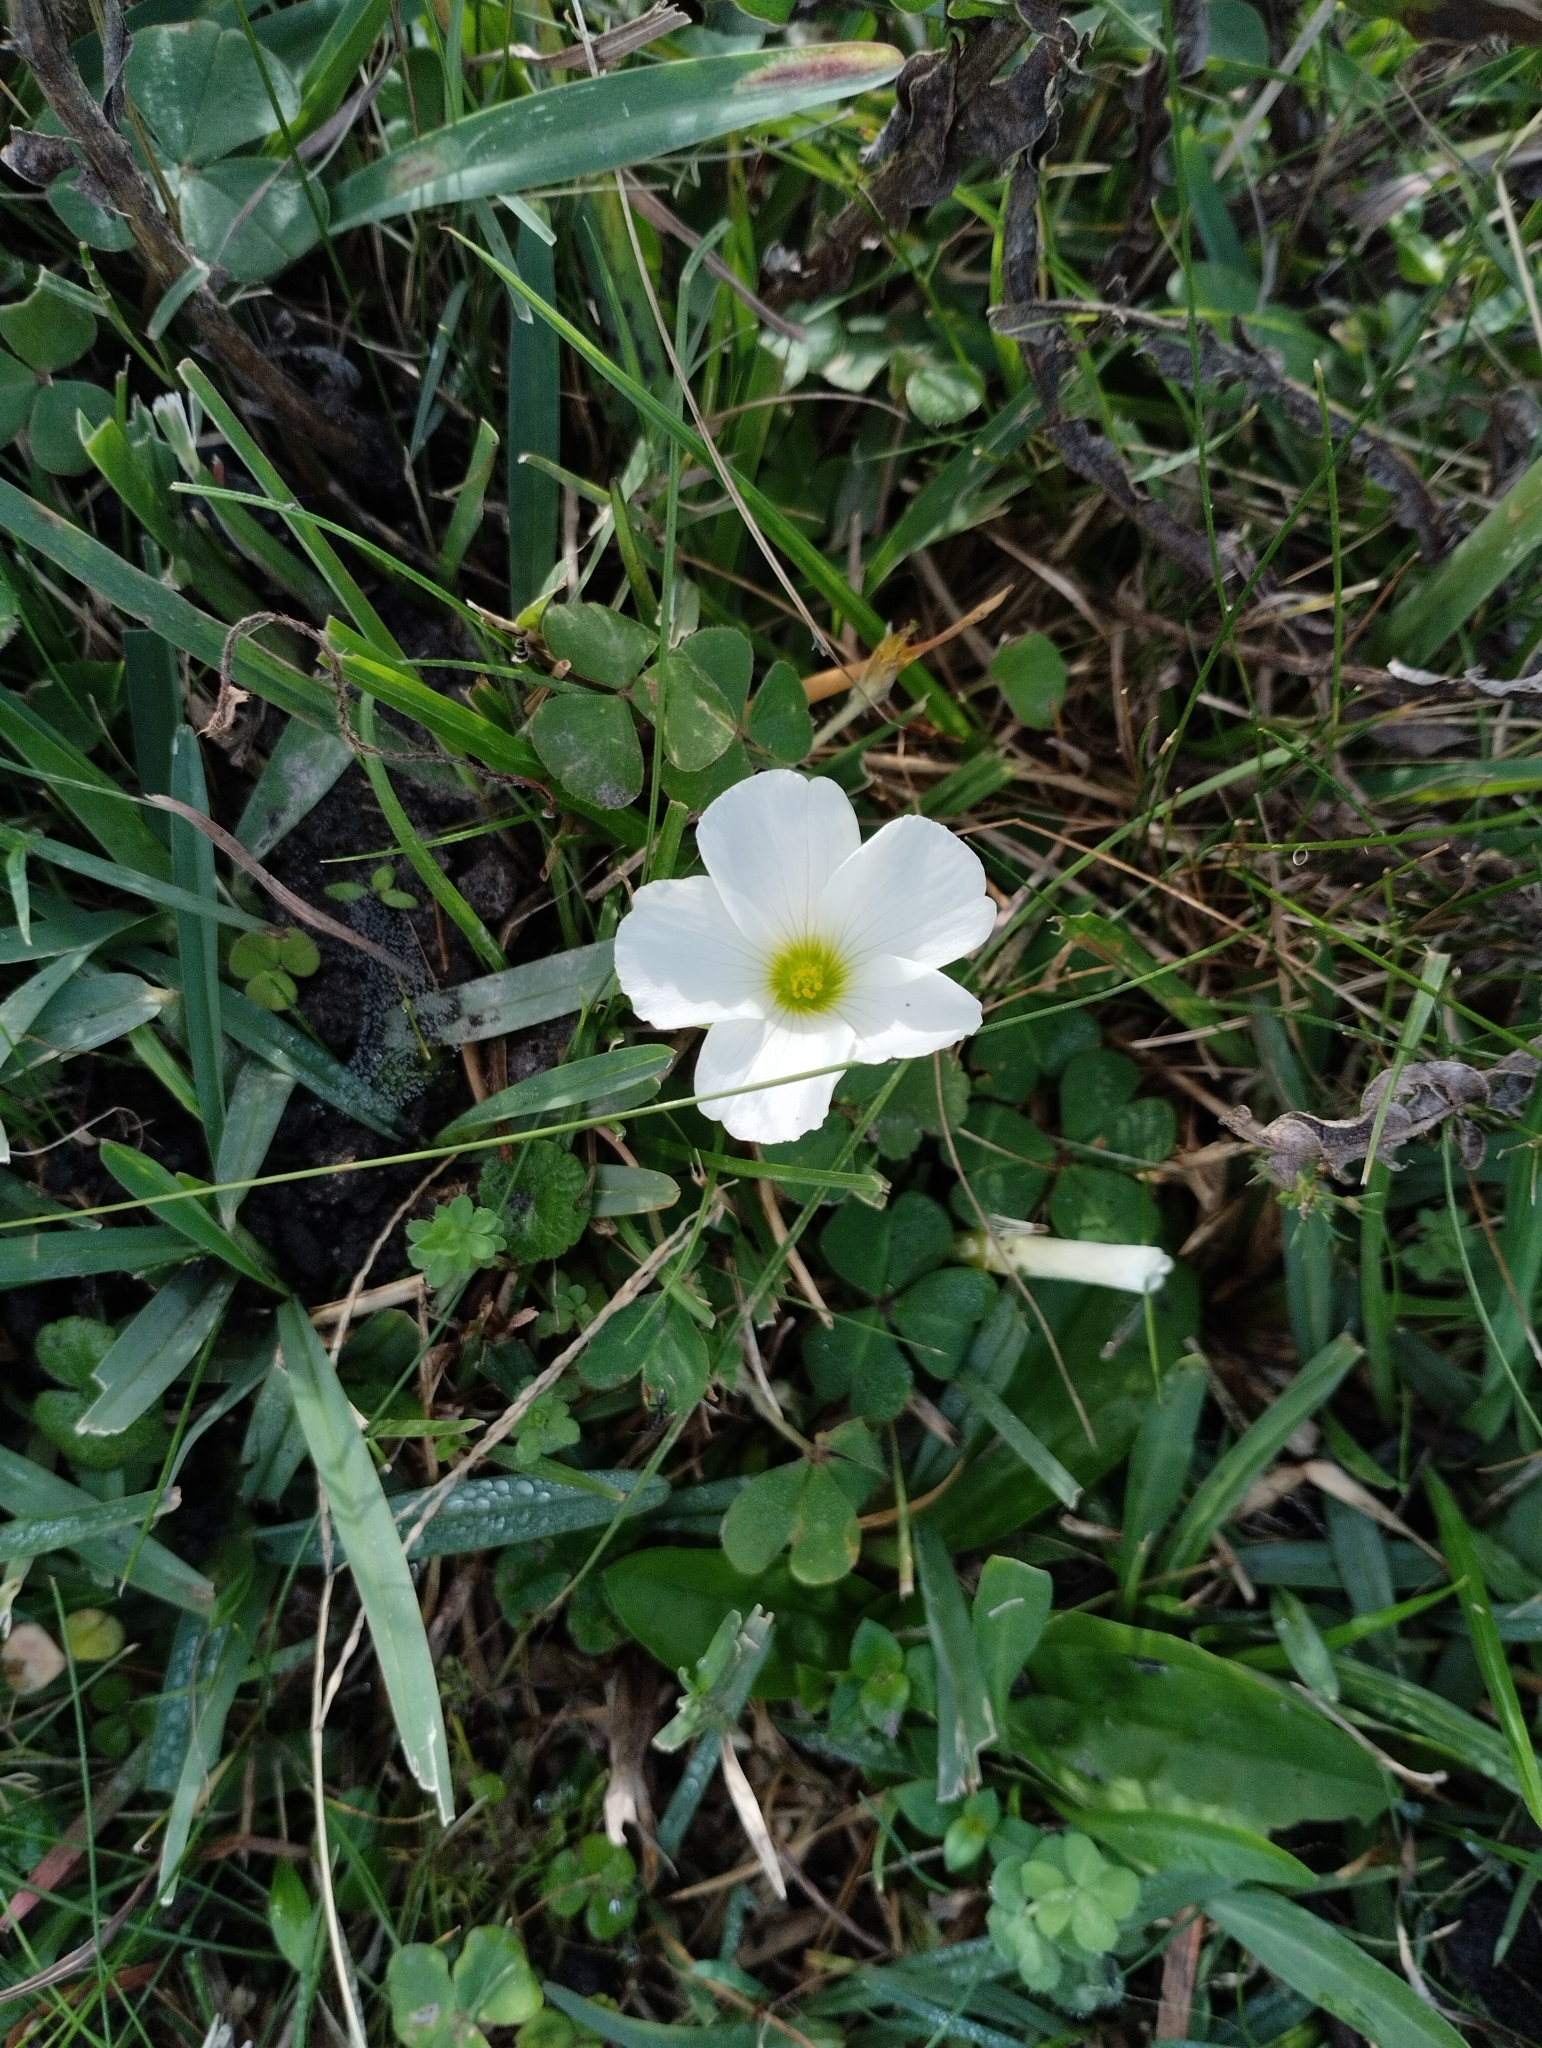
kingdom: Plantae
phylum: Tracheophyta
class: Magnoliopsida
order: Oxalidales
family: Oxalidaceae
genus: Oxalis
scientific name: Oxalis sellowiana
